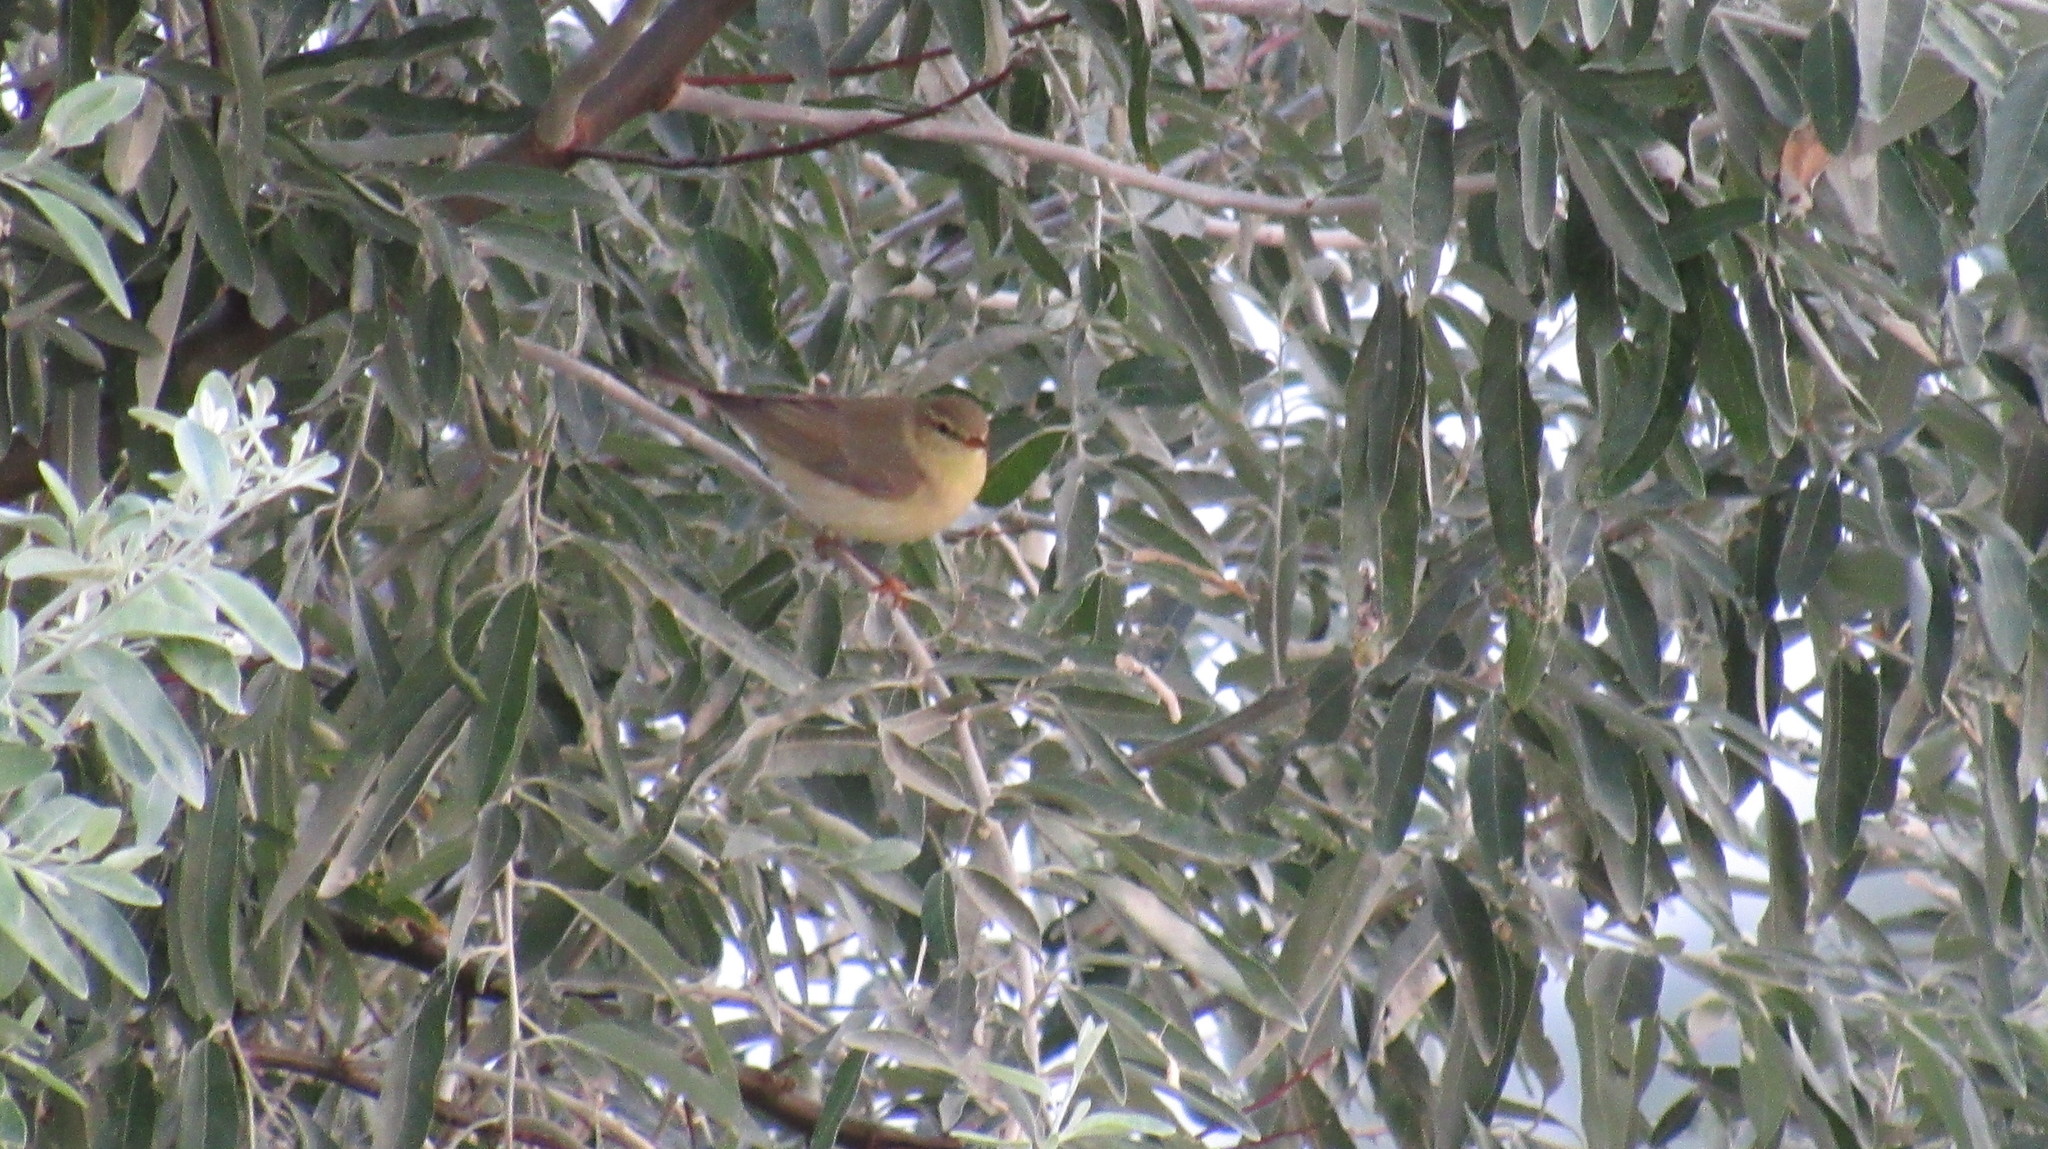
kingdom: Animalia
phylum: Chordata
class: Aves
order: Passeriformes
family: Phylloscopidae
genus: Phylloscopus
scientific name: Phylloscopus trochilus
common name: Willow warbler
